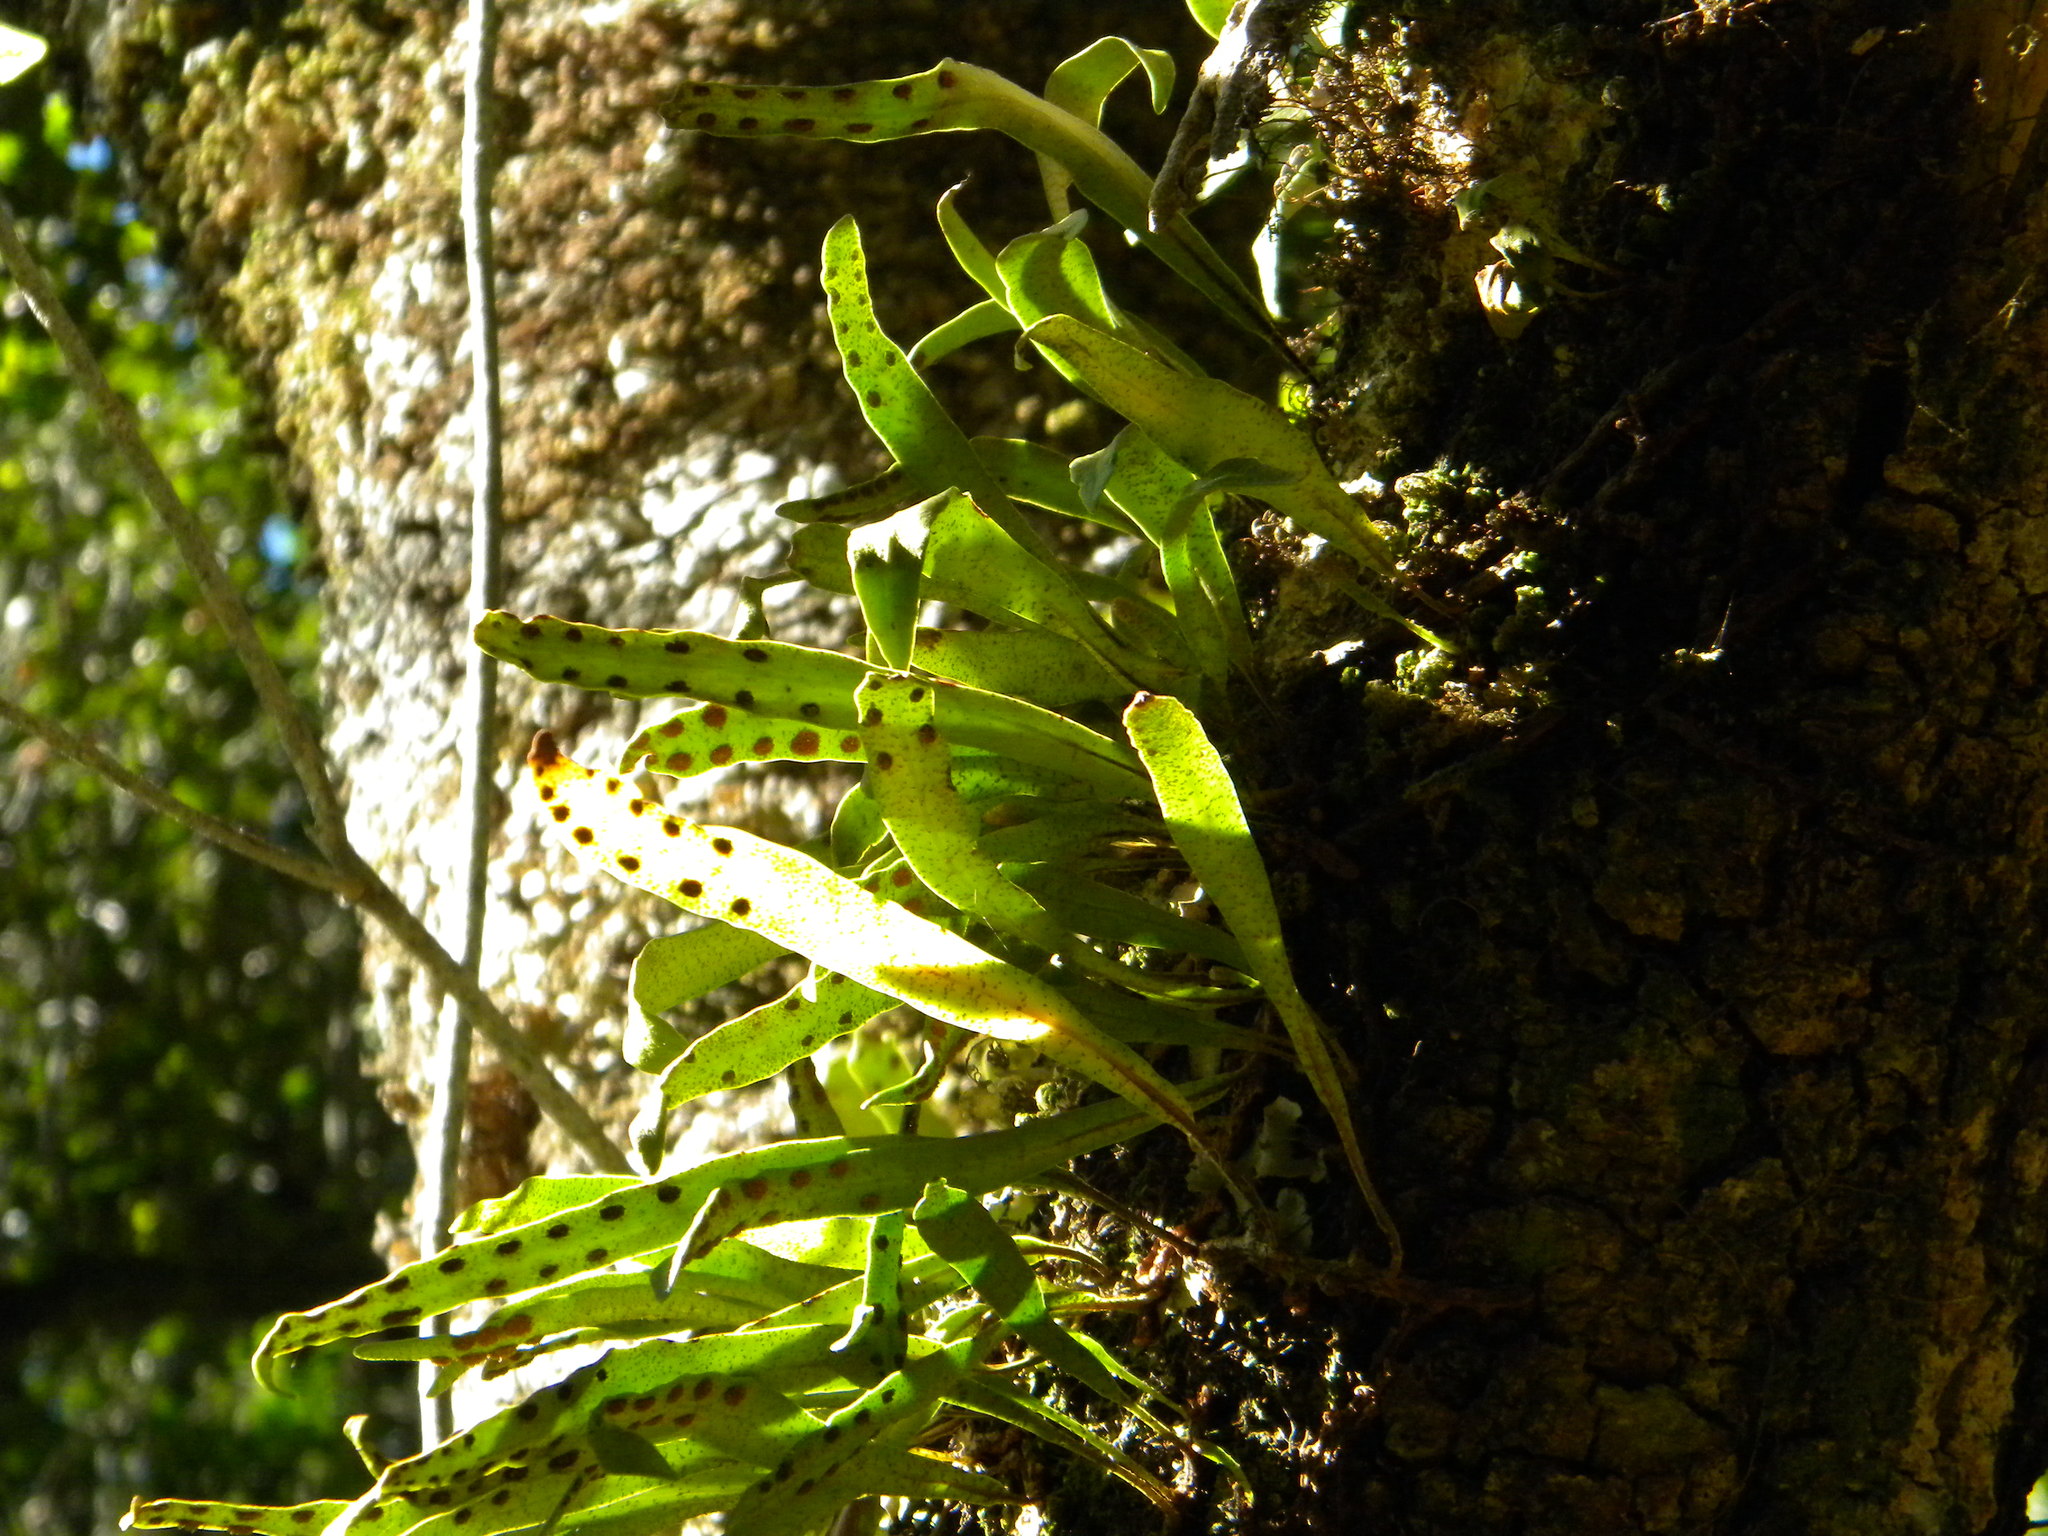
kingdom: Plantae
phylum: Tracheophyta
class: Polypodiopsida
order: Polypodiales
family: Polypodiaceae
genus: Pleopeltis
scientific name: Pleopeltis macrocarpa
